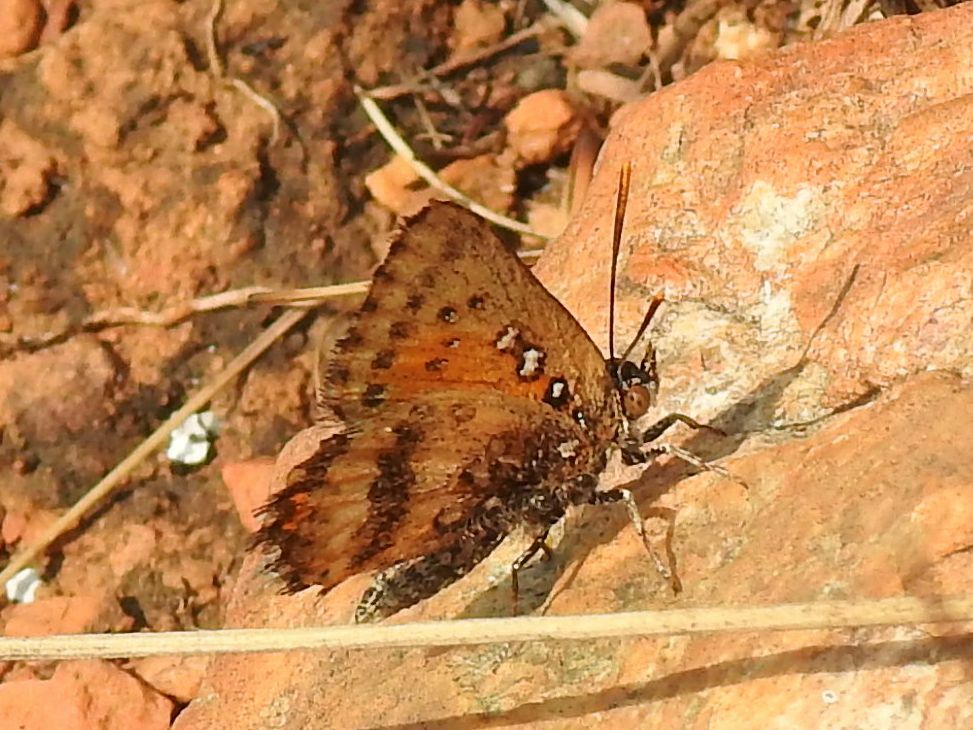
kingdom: Animalia
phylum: Arthropoda
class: Insecta
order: Lepidoptera
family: Lycaenidae
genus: Aloeides
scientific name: Aloeides molomo
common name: Mottled russet
